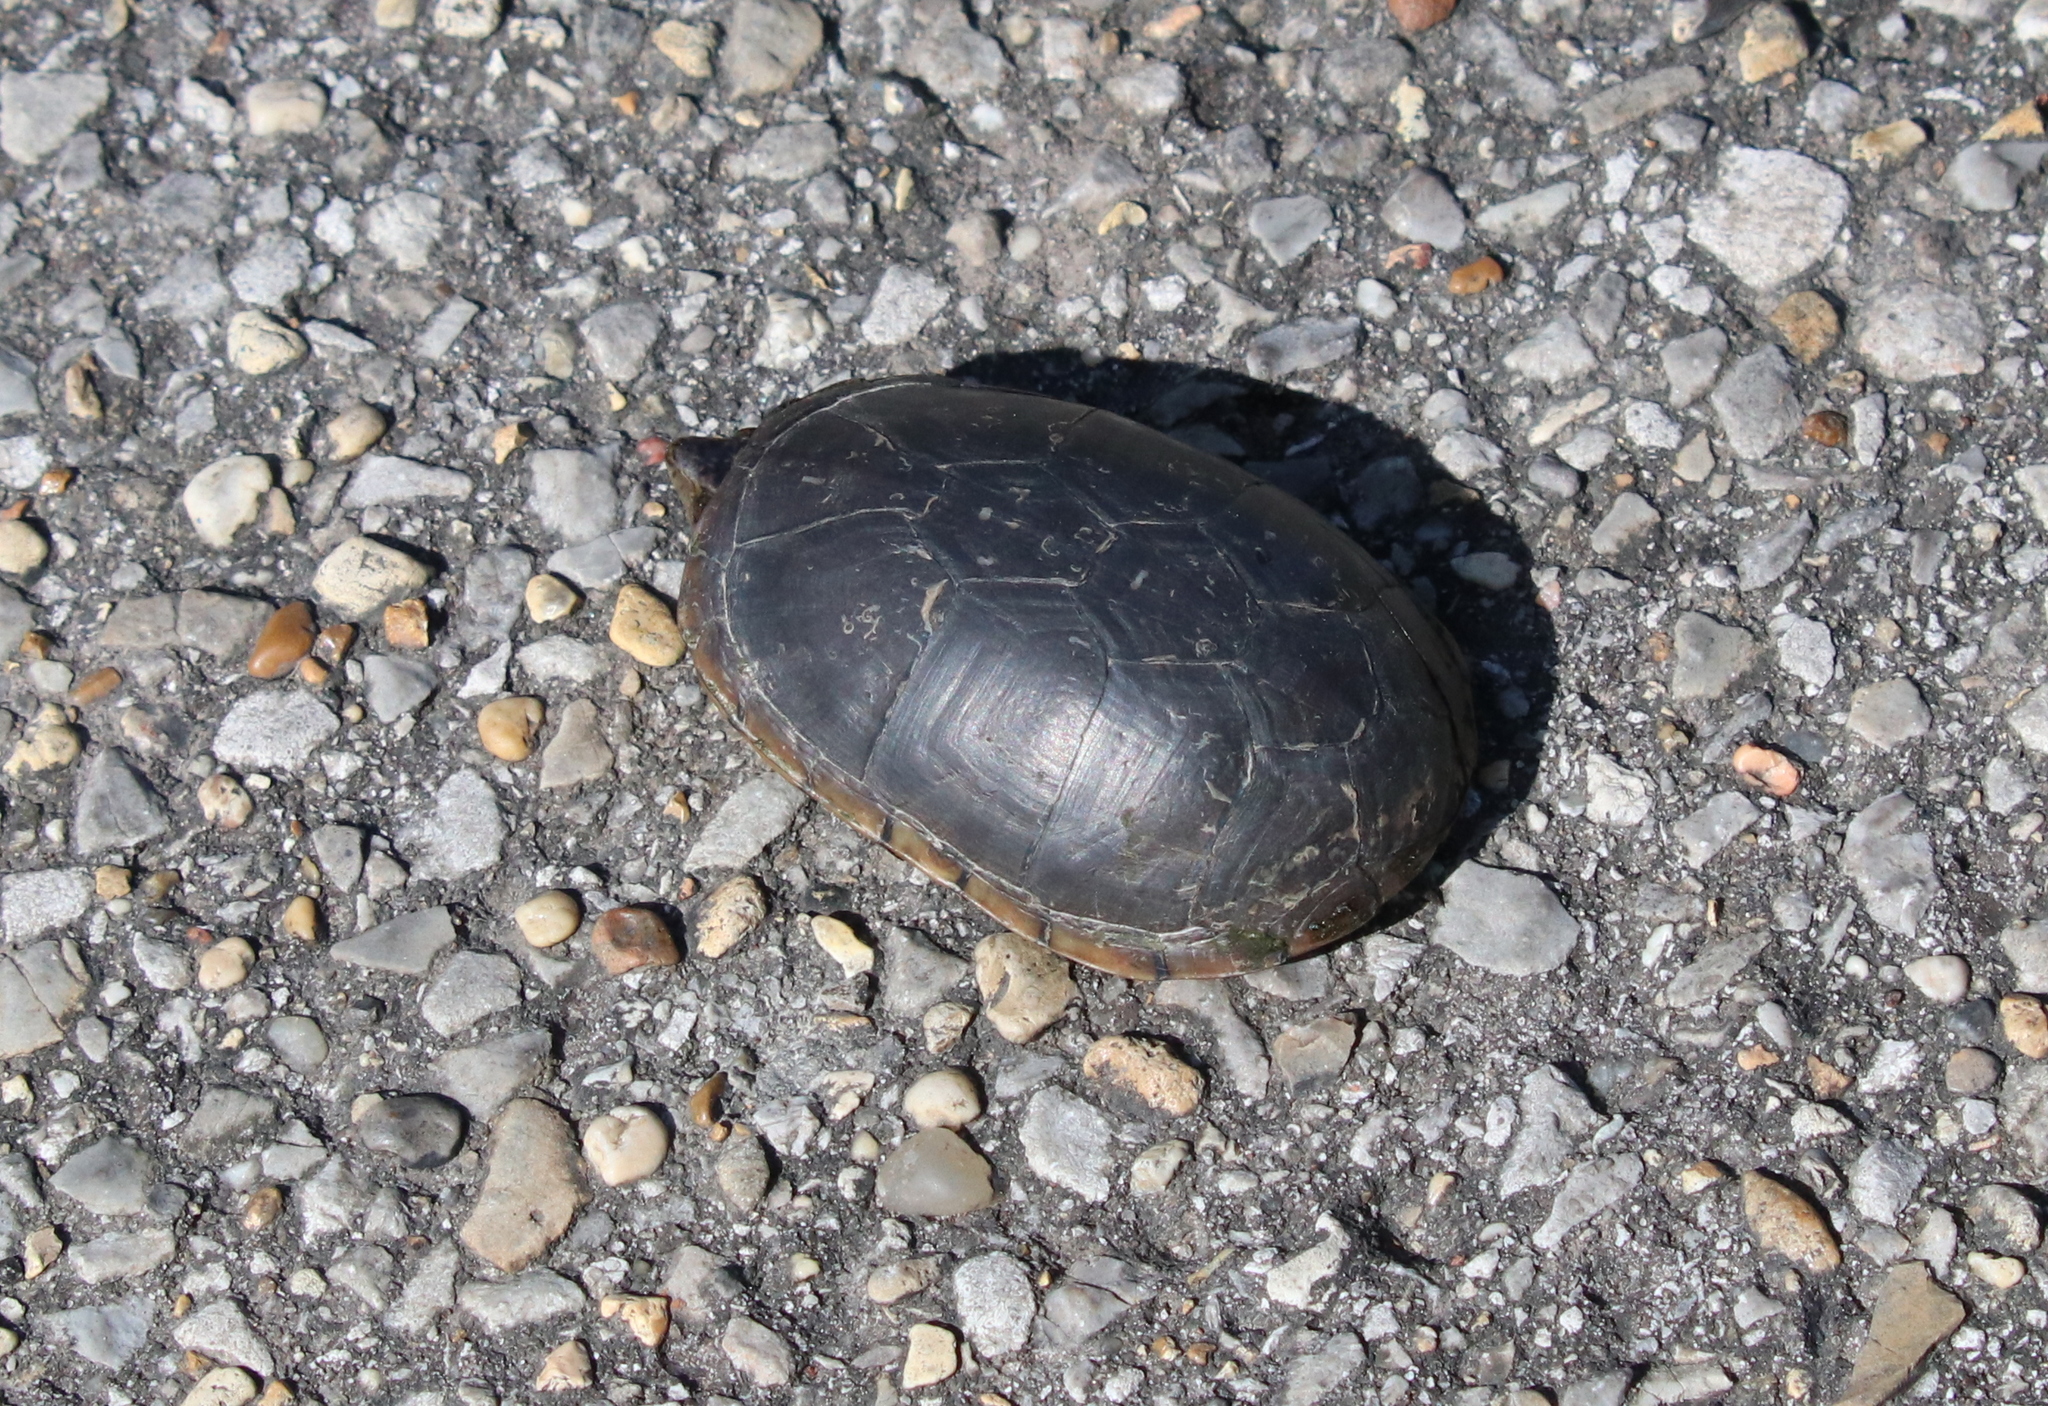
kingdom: Animalia
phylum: Chordata
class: Testudines
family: Kinosternidae
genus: Kinosternon
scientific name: Kinosternon subrubrum
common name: Eastern mud turtle
